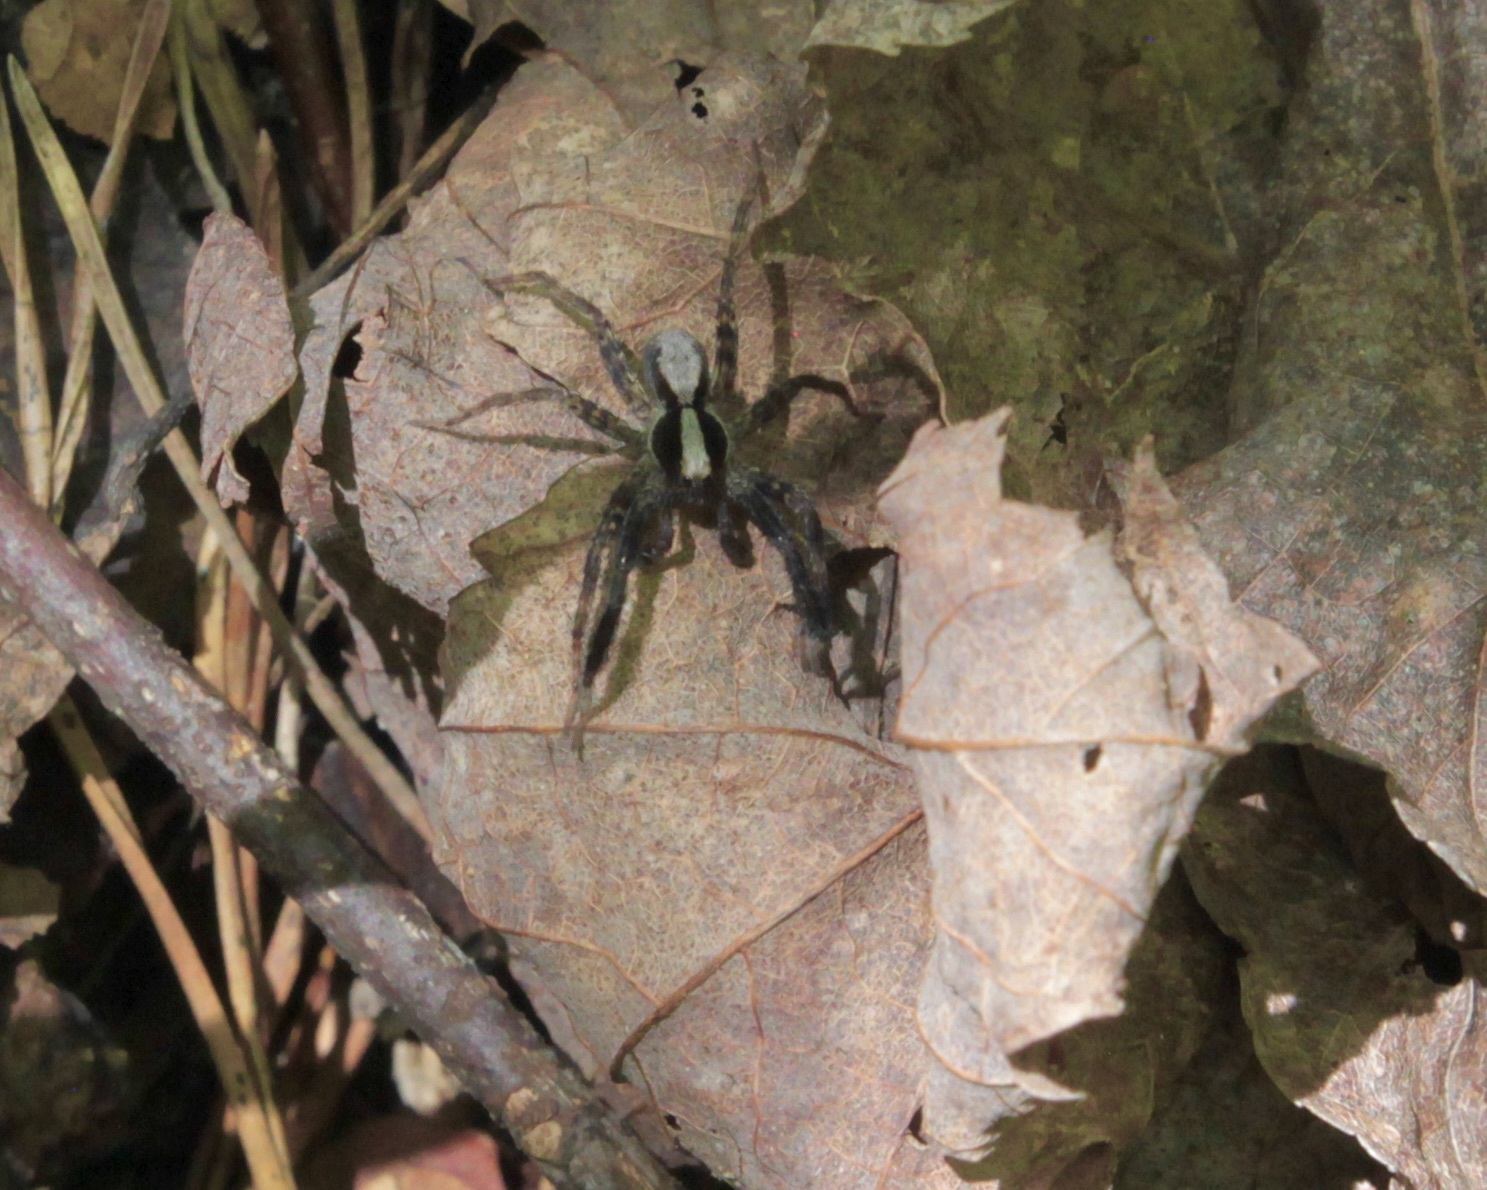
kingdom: Animalia
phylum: Arthropoda
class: Arachnida
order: Araneae
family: Lycosidae
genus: Schizocosa
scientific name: Schizocosa ocreata
